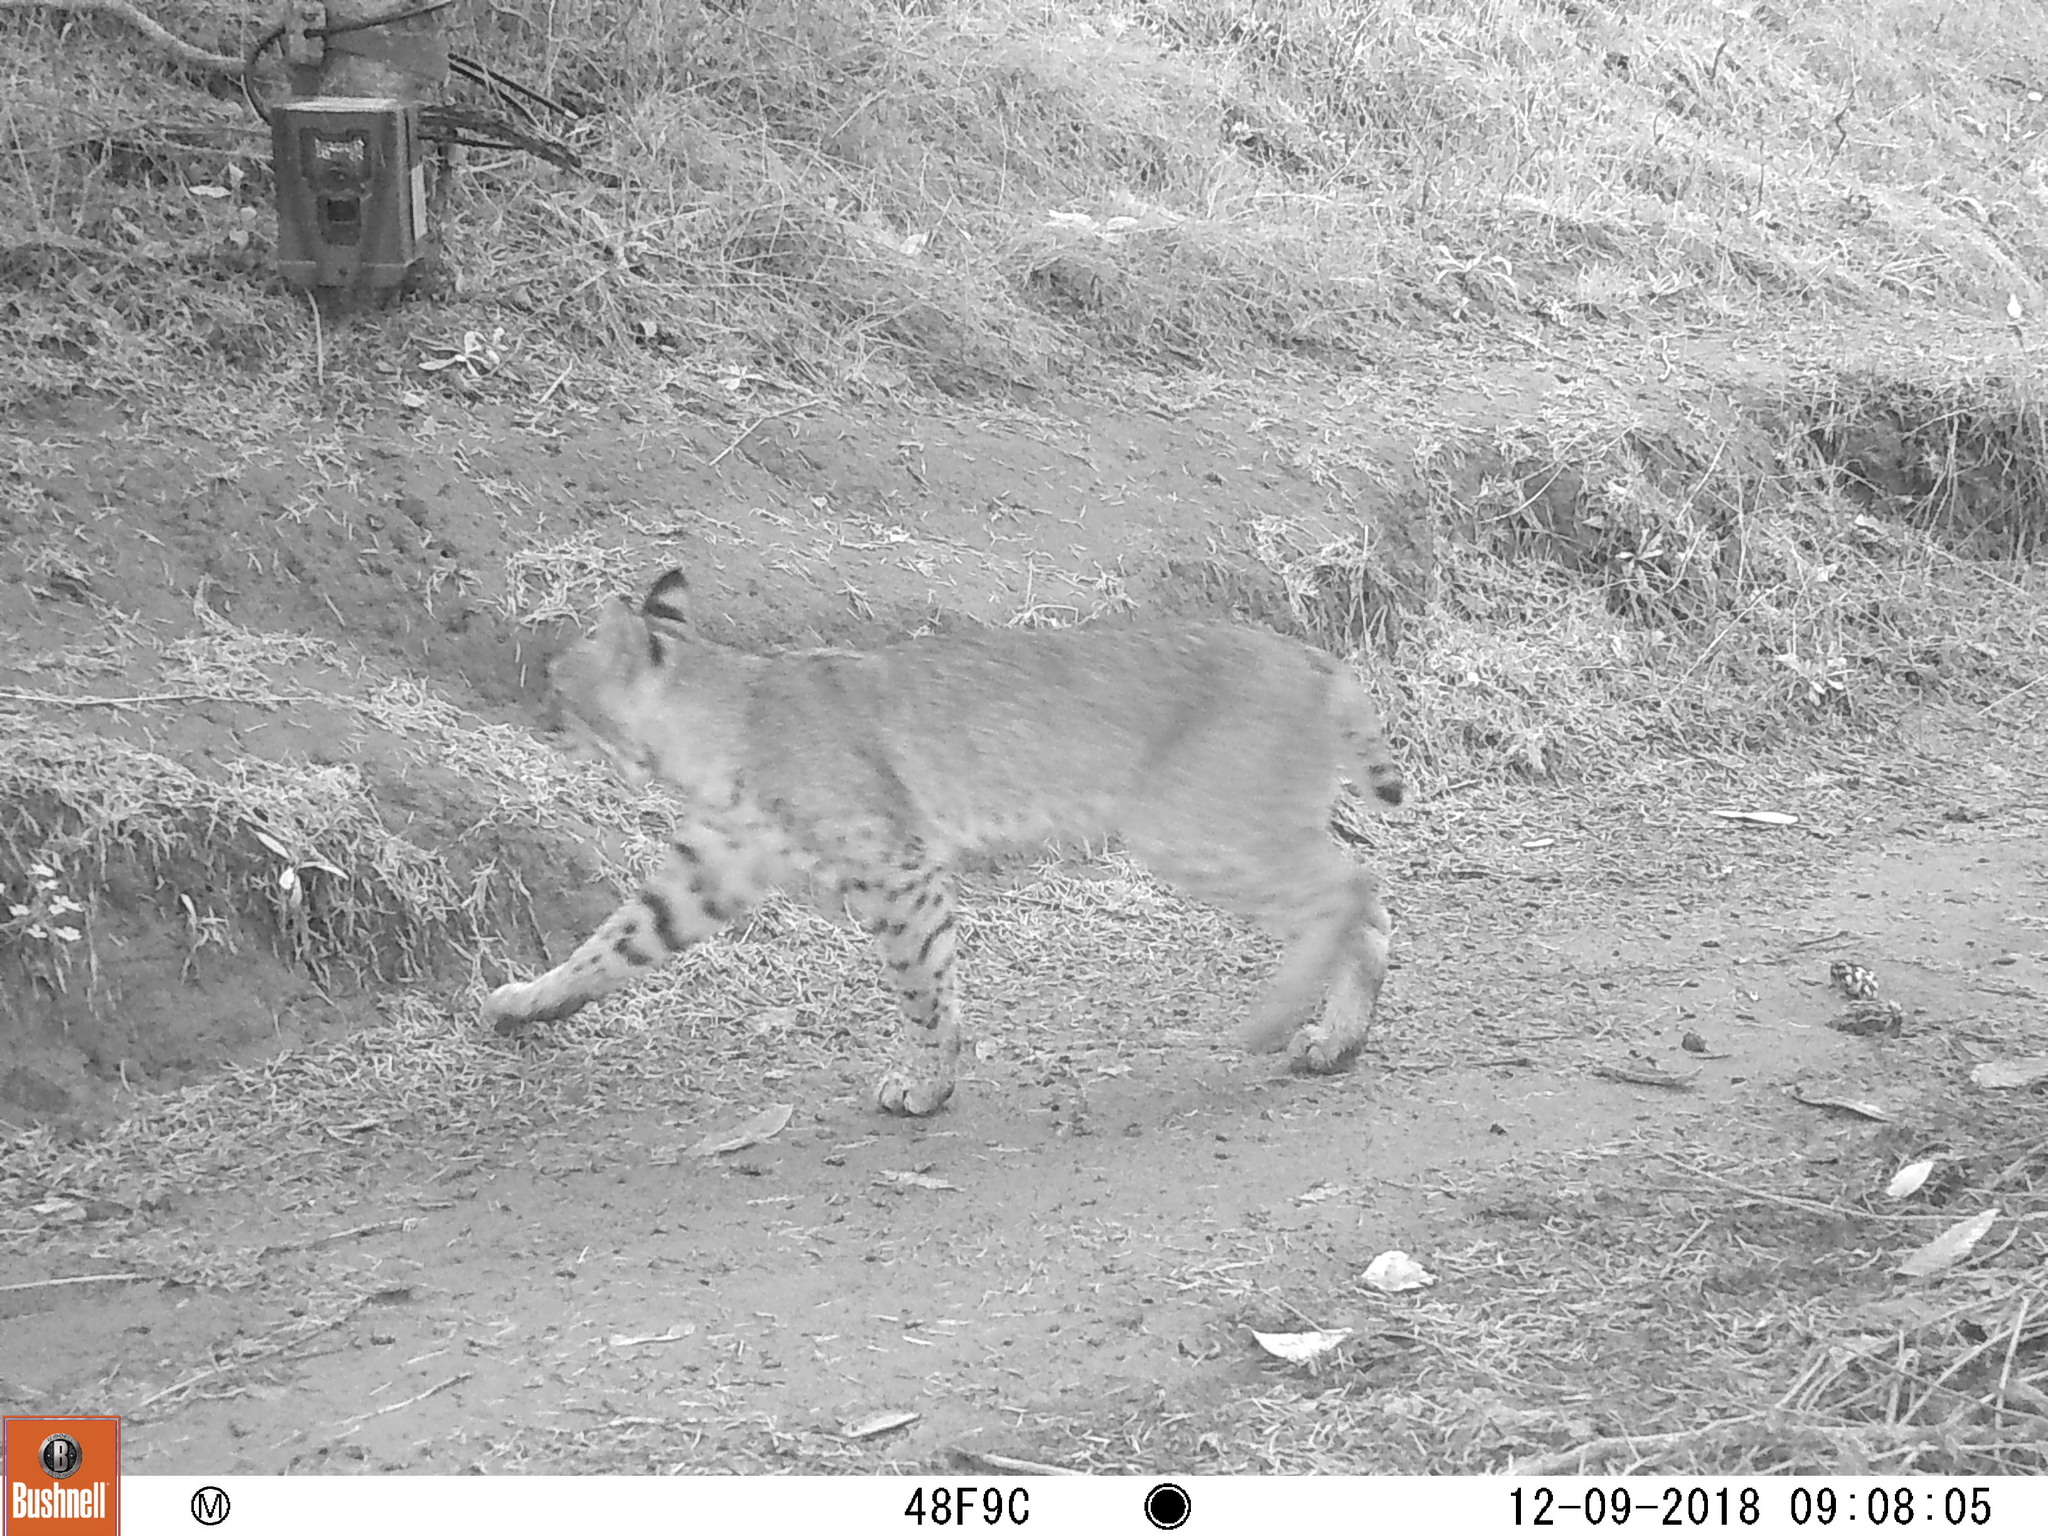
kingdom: Animalia
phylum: Chordata
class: Mammalia
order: Carnivora
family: Felidae
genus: Lynx
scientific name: Lynx rufus
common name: Bobcat
